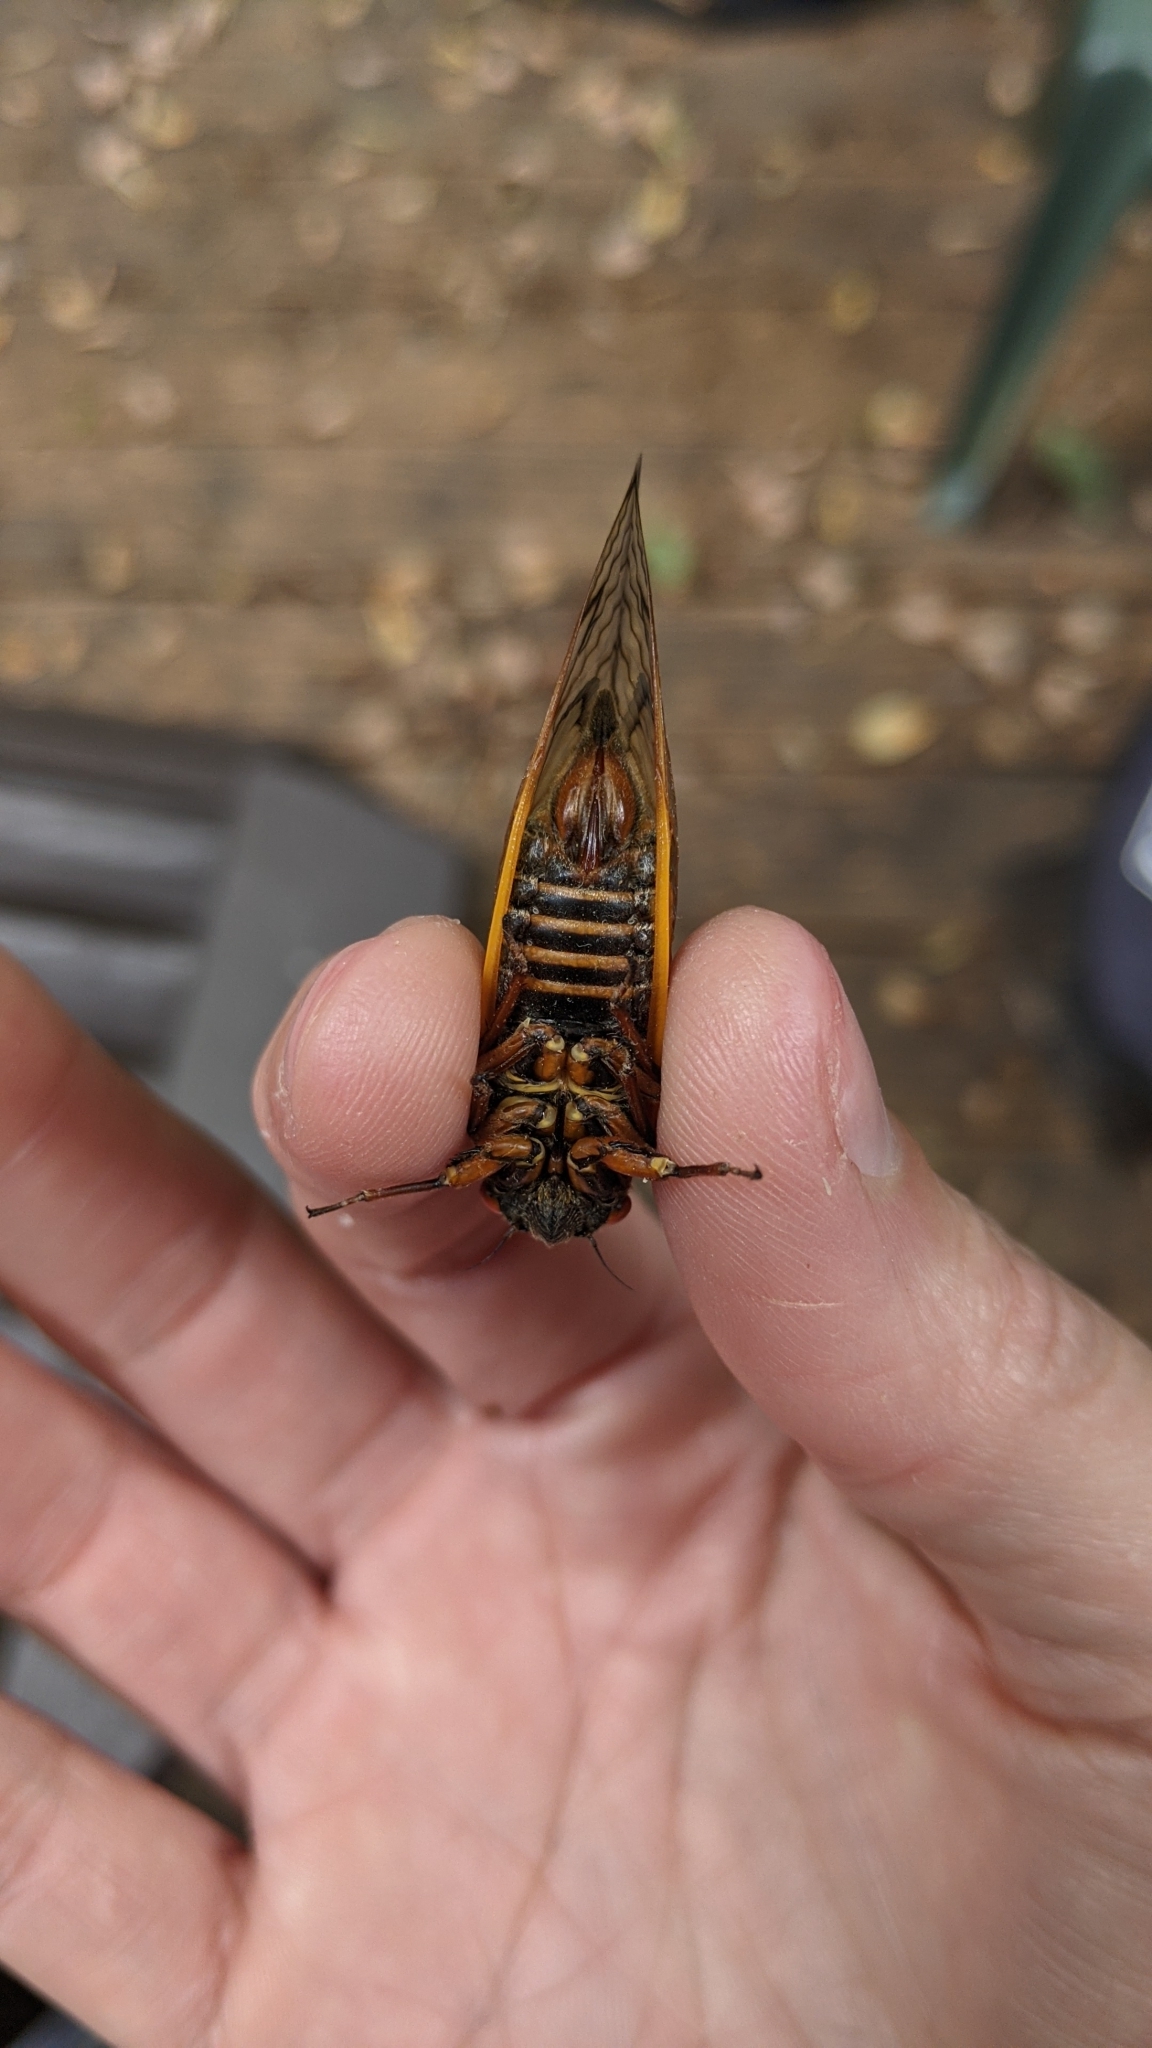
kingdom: Animalia
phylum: Arthropoda
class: Insecta
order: Hemiptera
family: Cicadidae
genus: Magicicada
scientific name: Magicicada septendecim
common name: Periodical cicada
